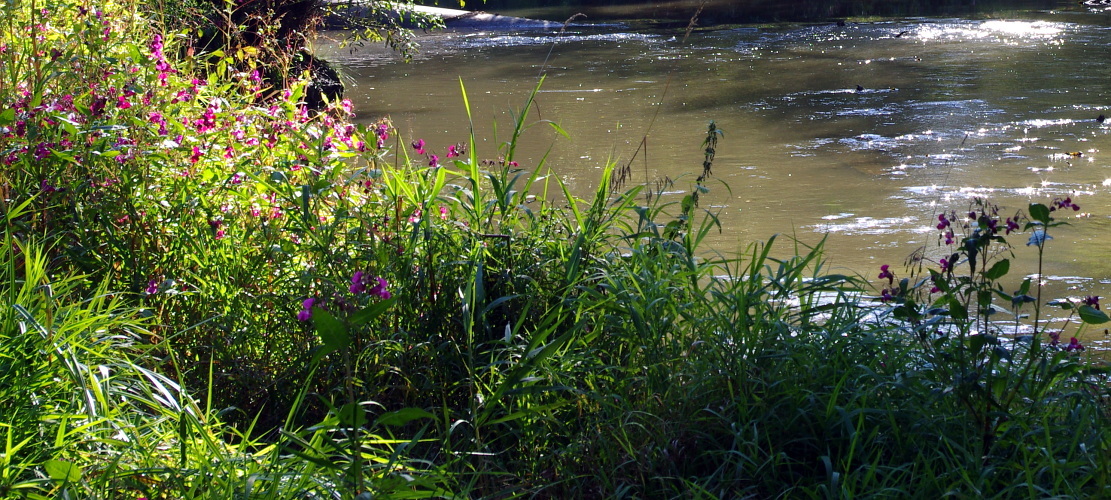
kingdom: Plantae
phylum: Tracheophyta
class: Magnoliopsida
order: Ericales
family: Balsaminaceae
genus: Impatiens
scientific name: Impatiens glandulifera
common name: Himalayan balsam
